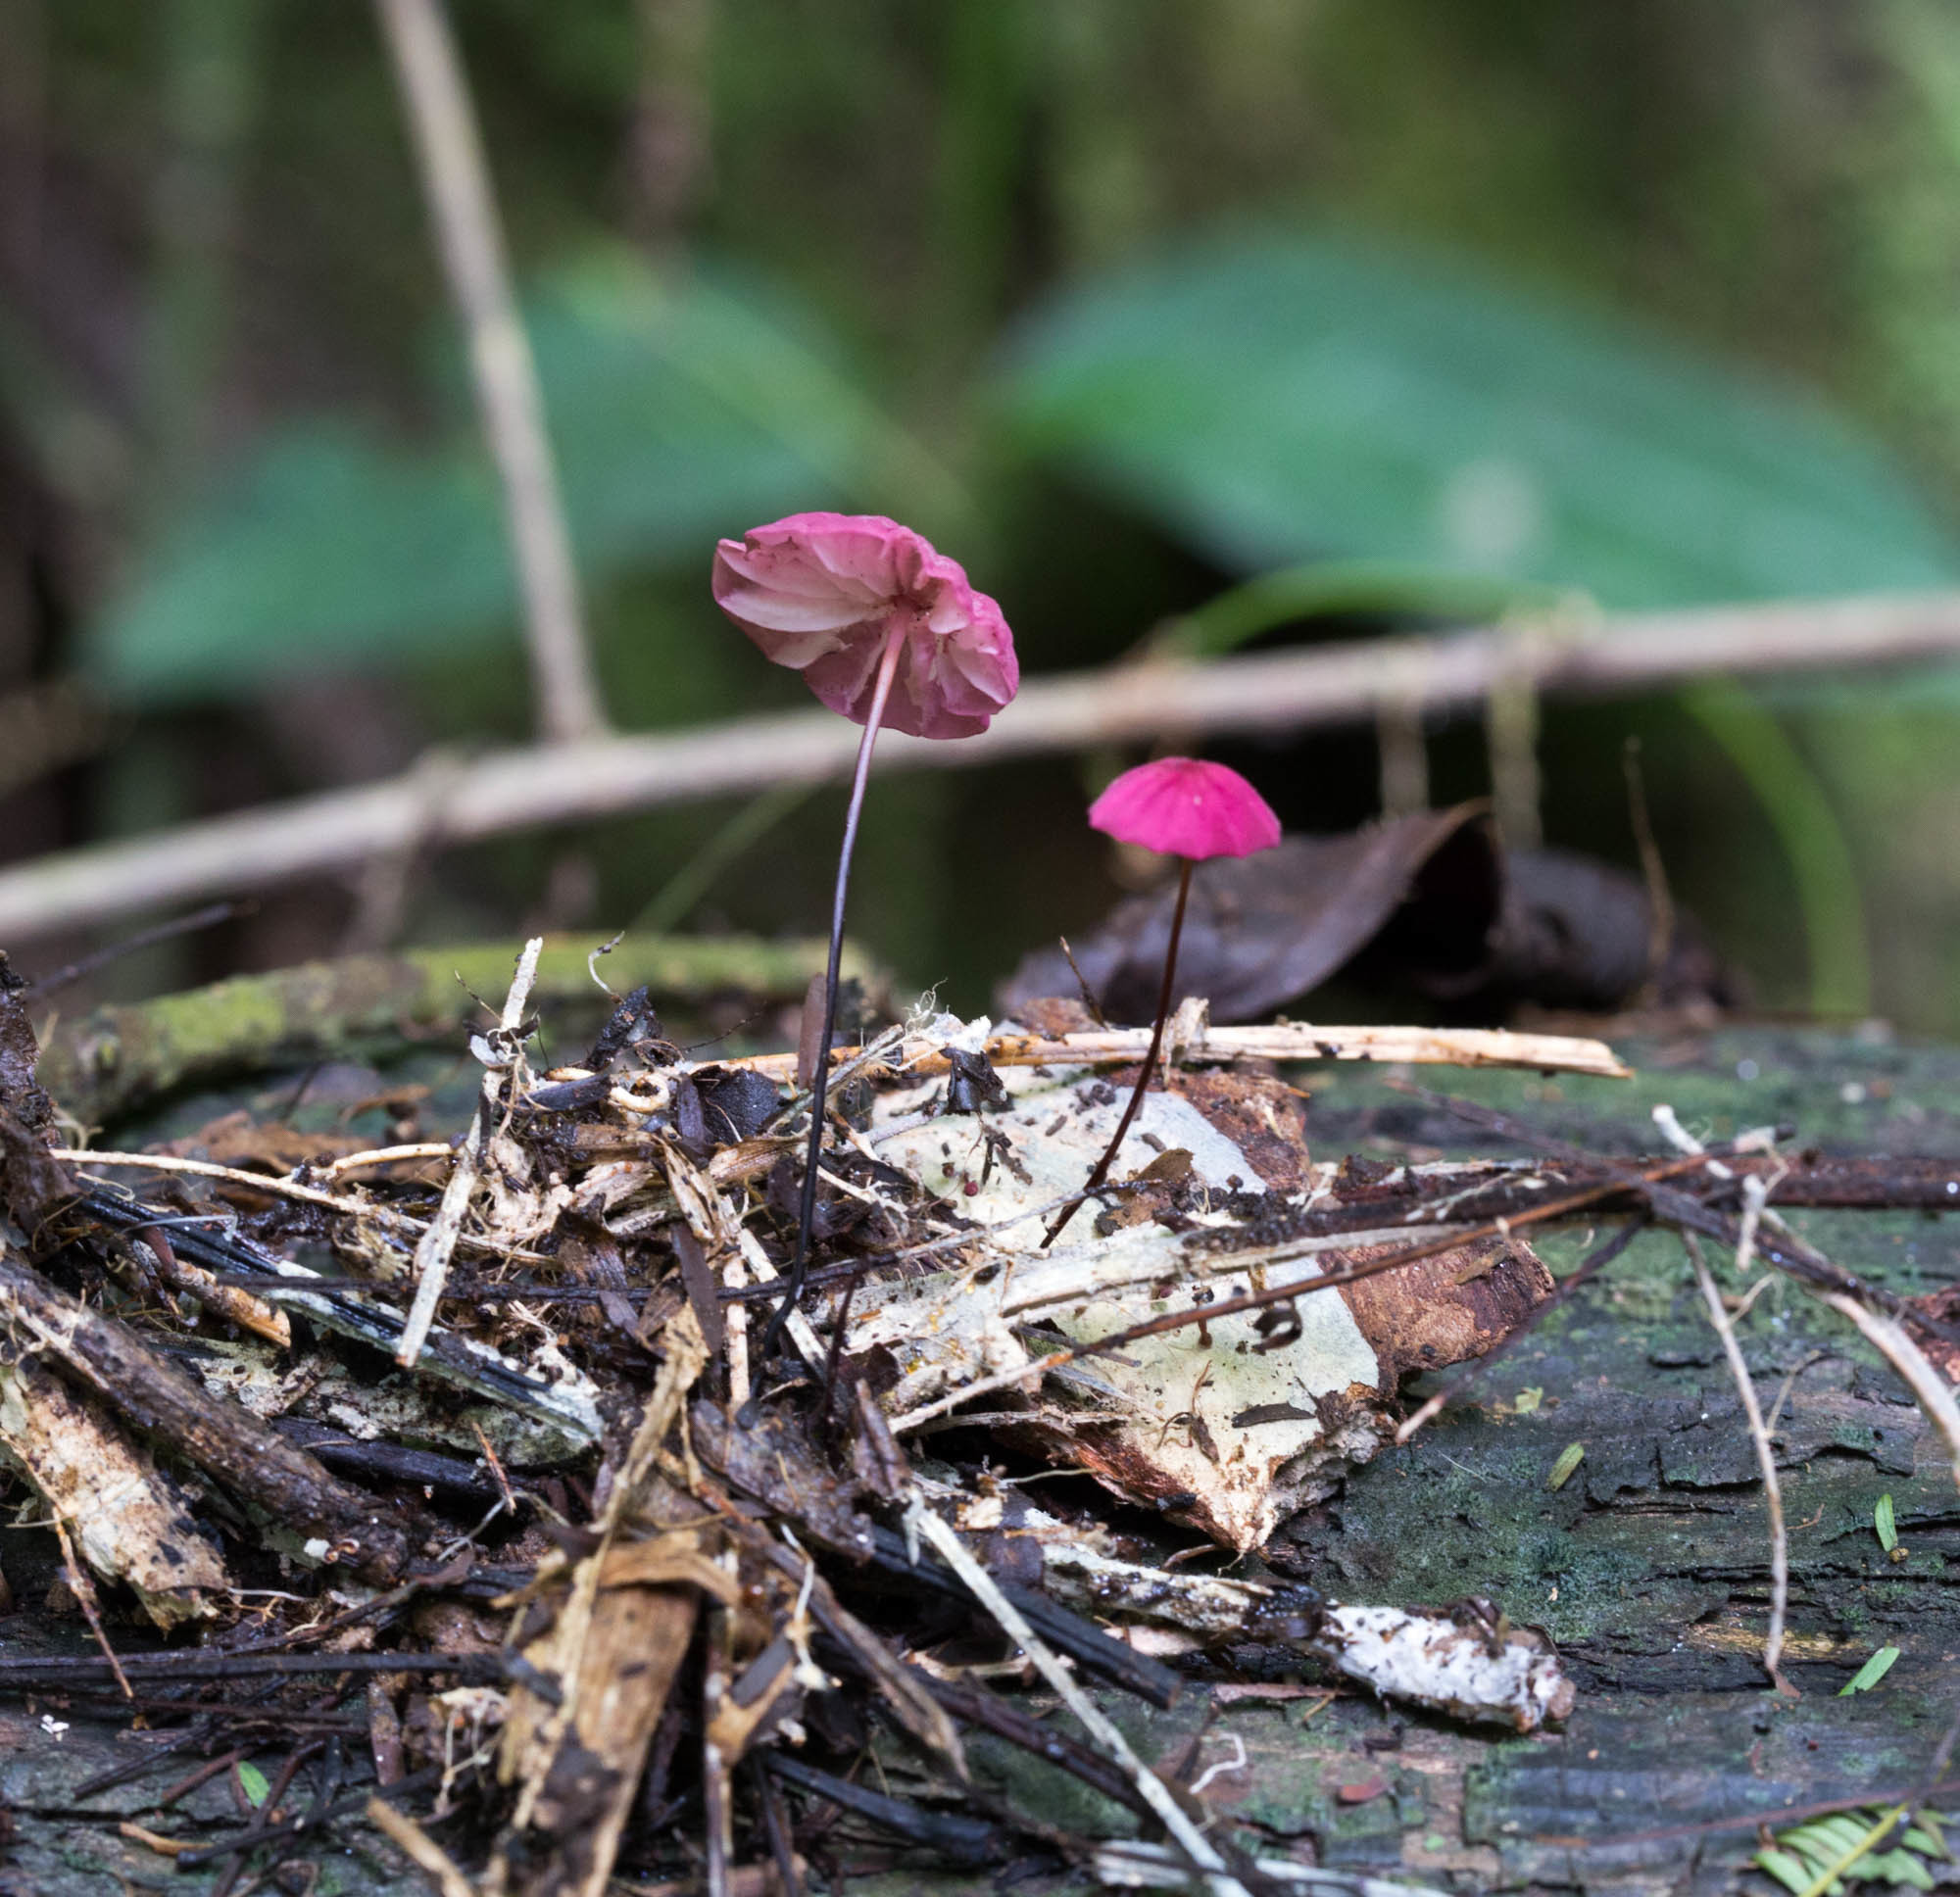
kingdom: Fungi
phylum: Basidiomycota
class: Agaricomycetes
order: Agaricales
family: Marasmiaceae
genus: Marasmius
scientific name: Marasmius haematocephalus
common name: Purple pinwheel
